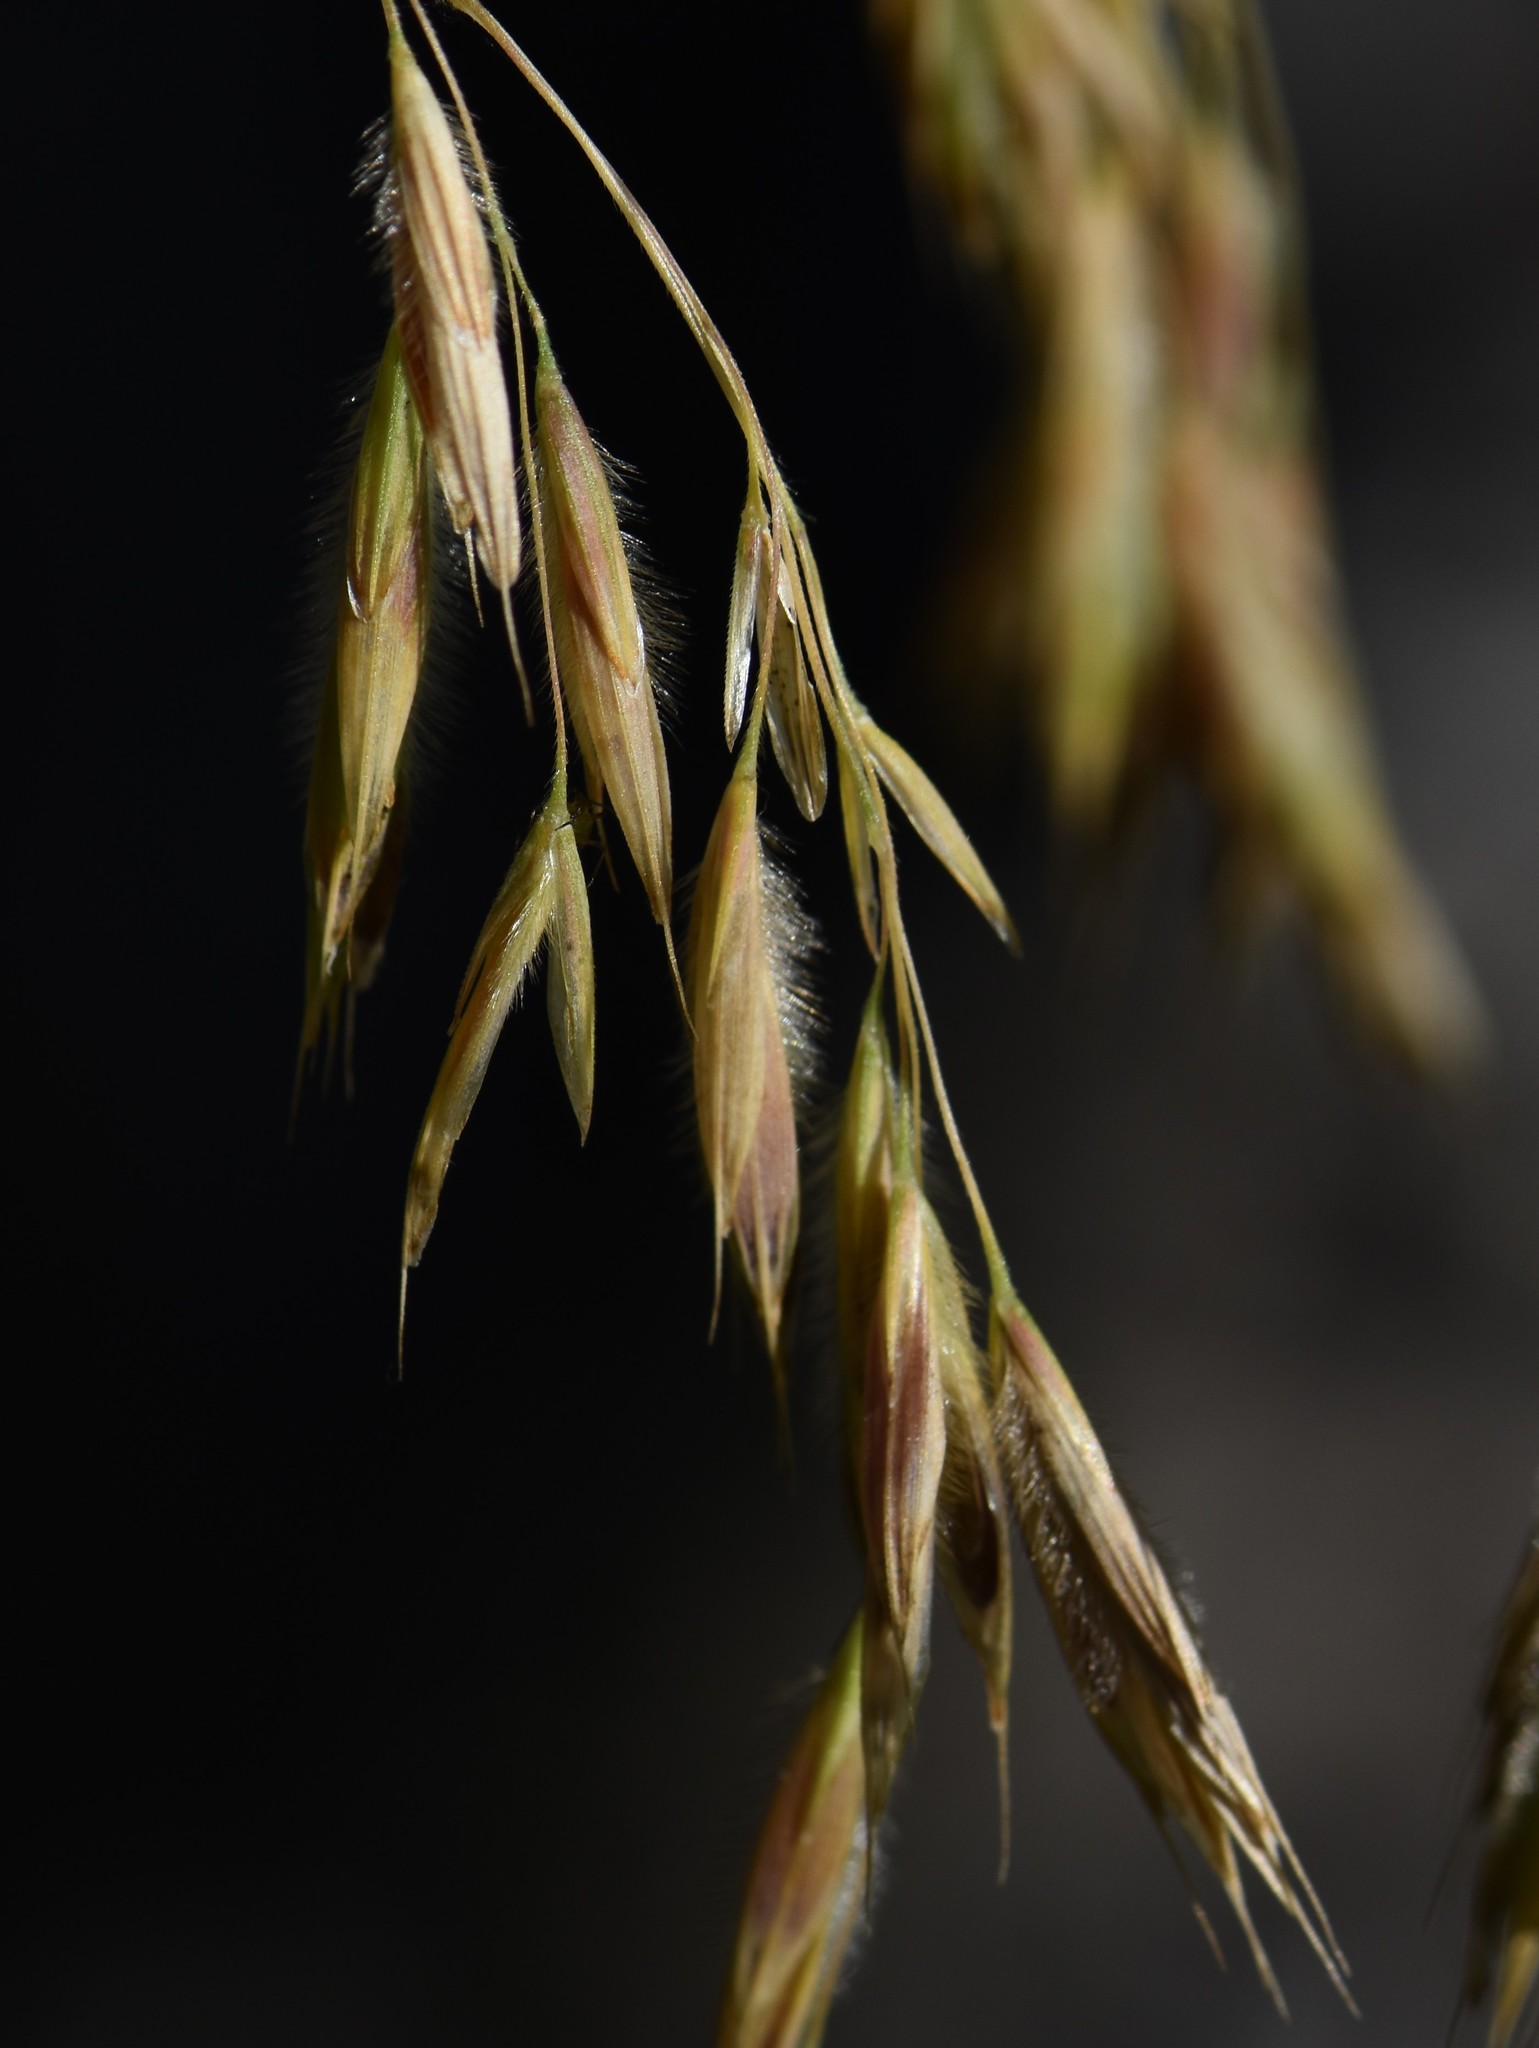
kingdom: Plantae
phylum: Tracheophyta
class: Liliopsida
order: Poales
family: Poaceae
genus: Bromus
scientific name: Bromus ciliatus
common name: Fringe brome
